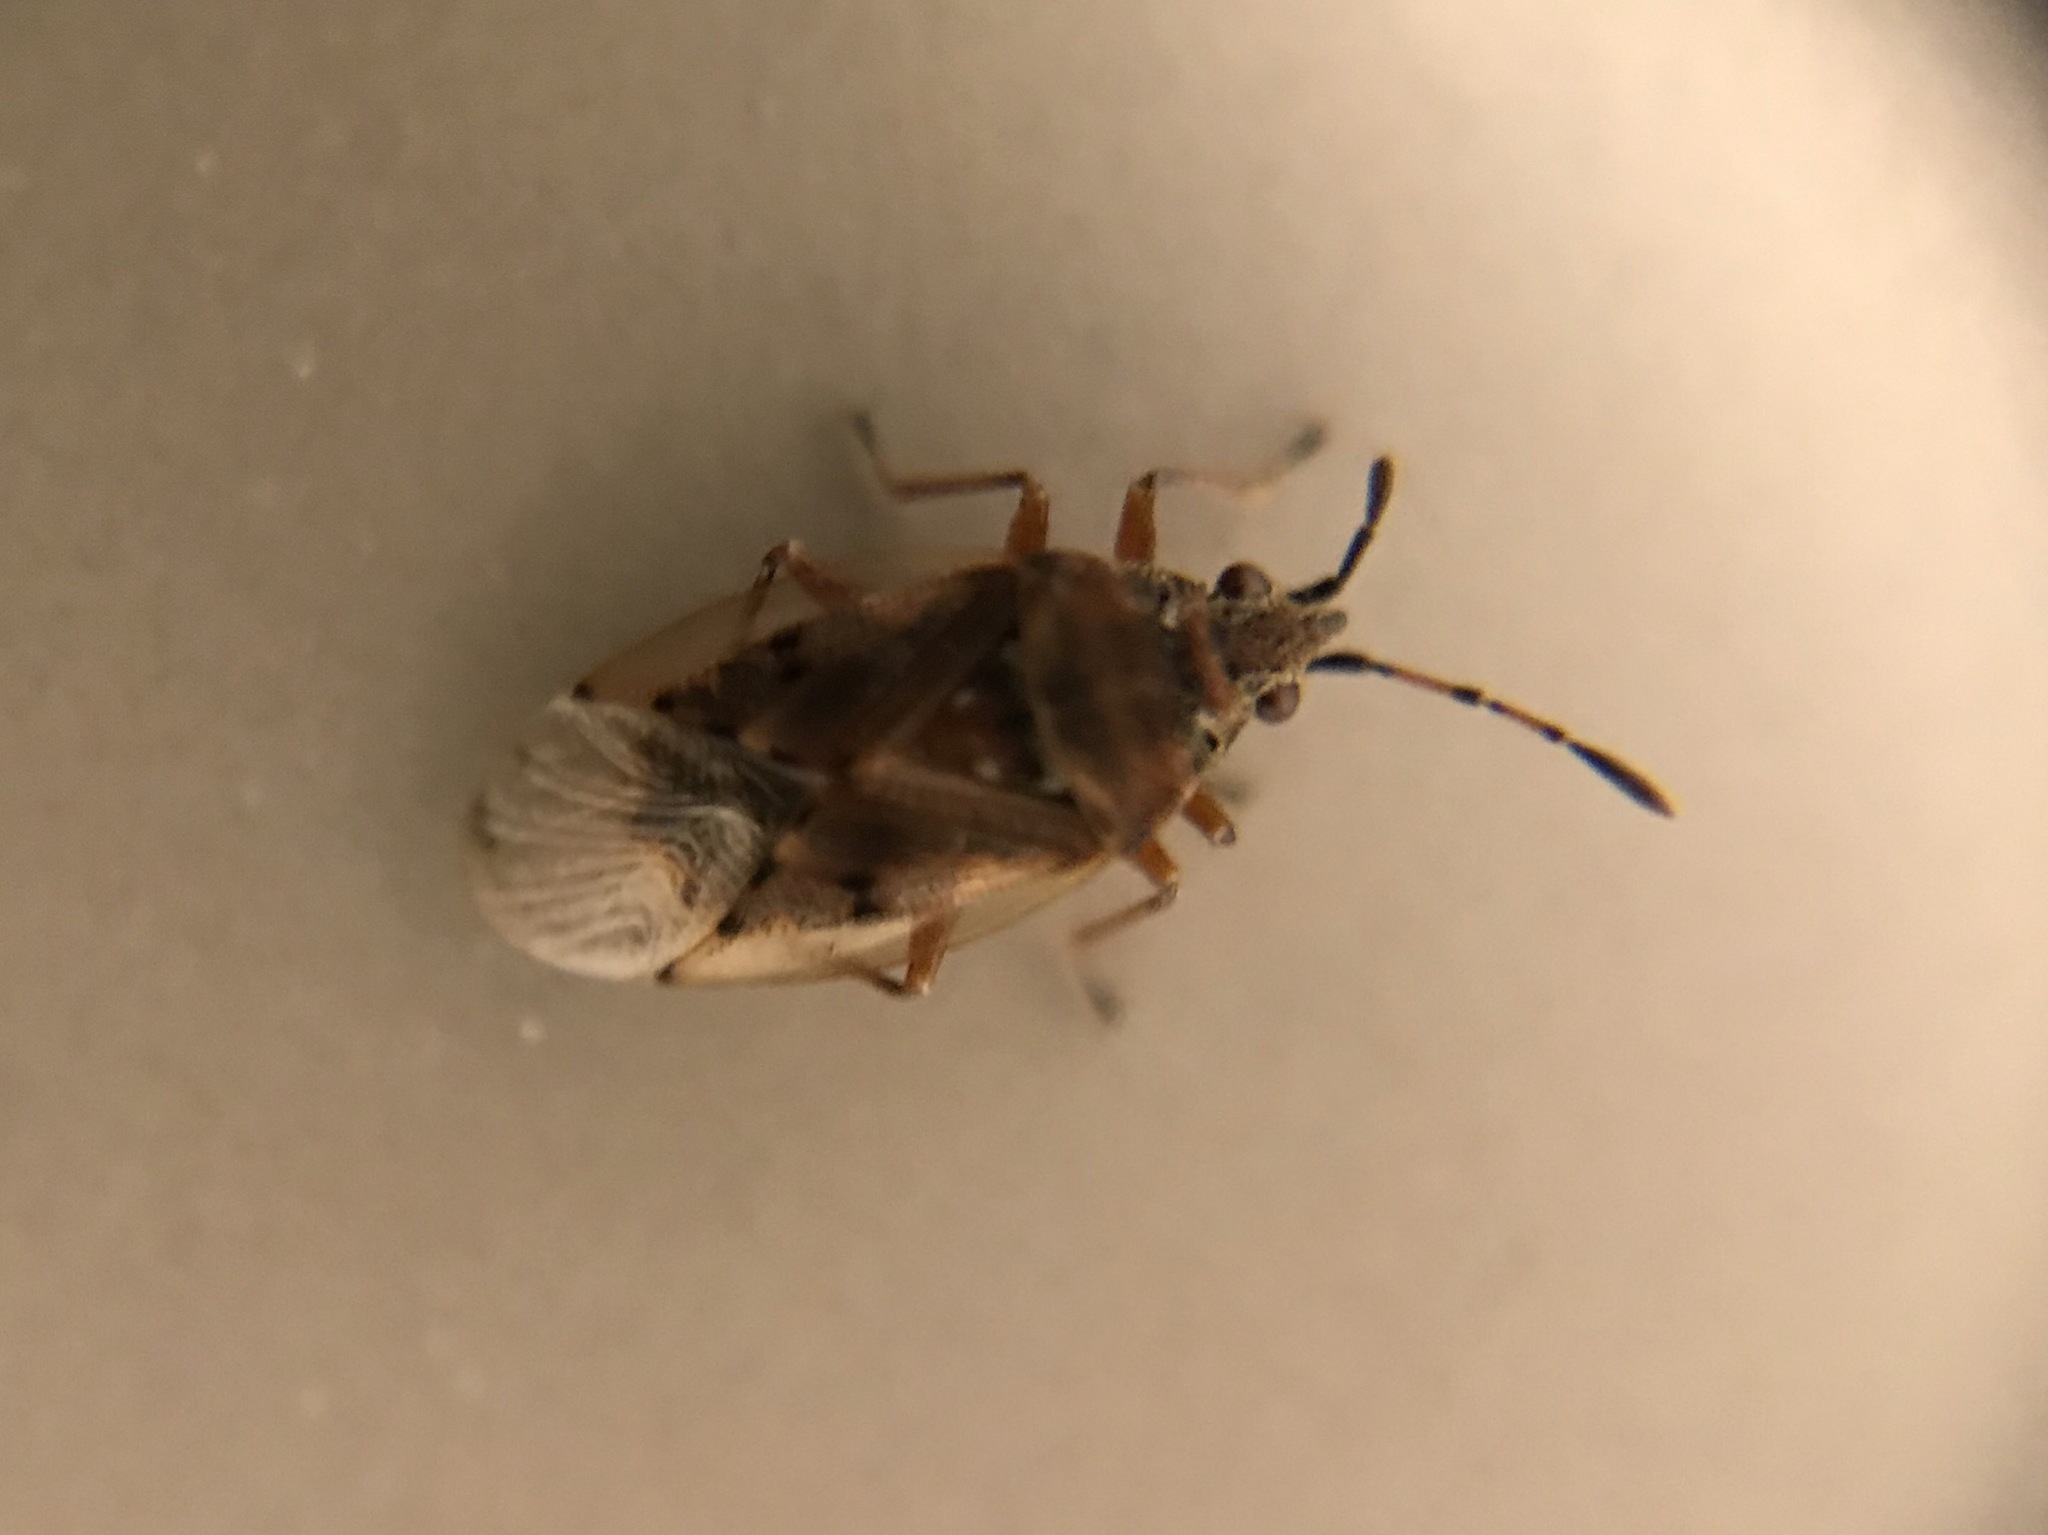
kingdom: Animalia
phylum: Arthropoda
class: Insecta
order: Hemiptera
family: Lygaeidae
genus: Kleidocerys
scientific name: Kleidocerys resedae
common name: Birch catkin bug
